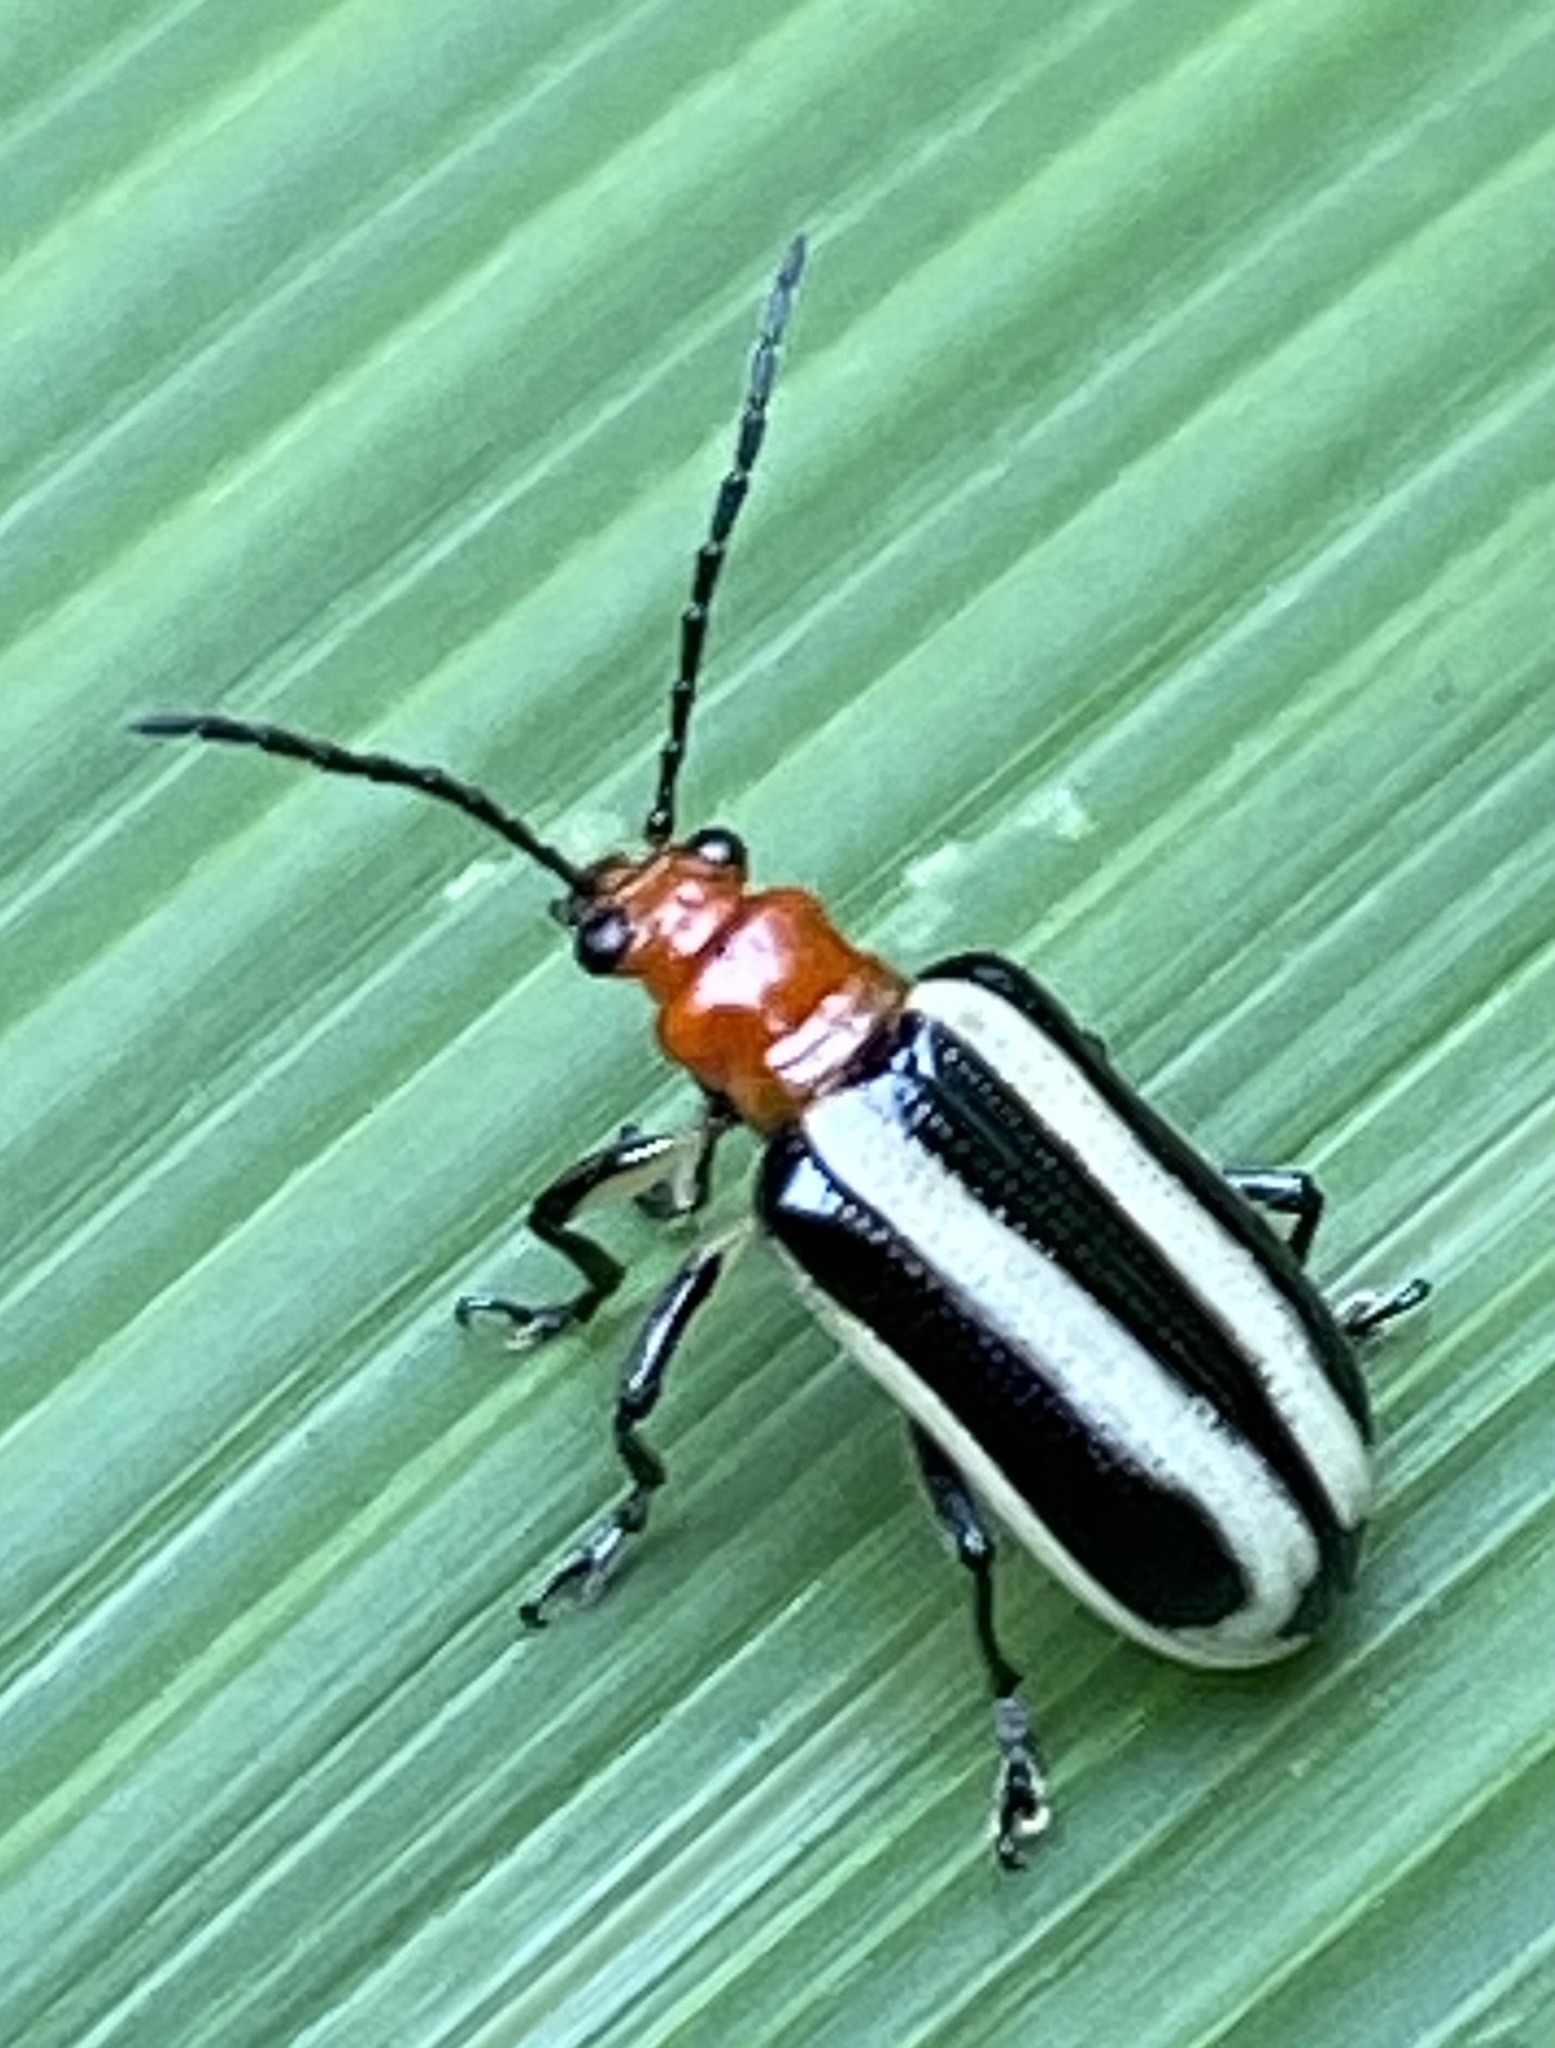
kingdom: Animalia
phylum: Arthropoda
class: Insecta
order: Coleoptera
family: Chrysomelidae
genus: Lema
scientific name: Lema
